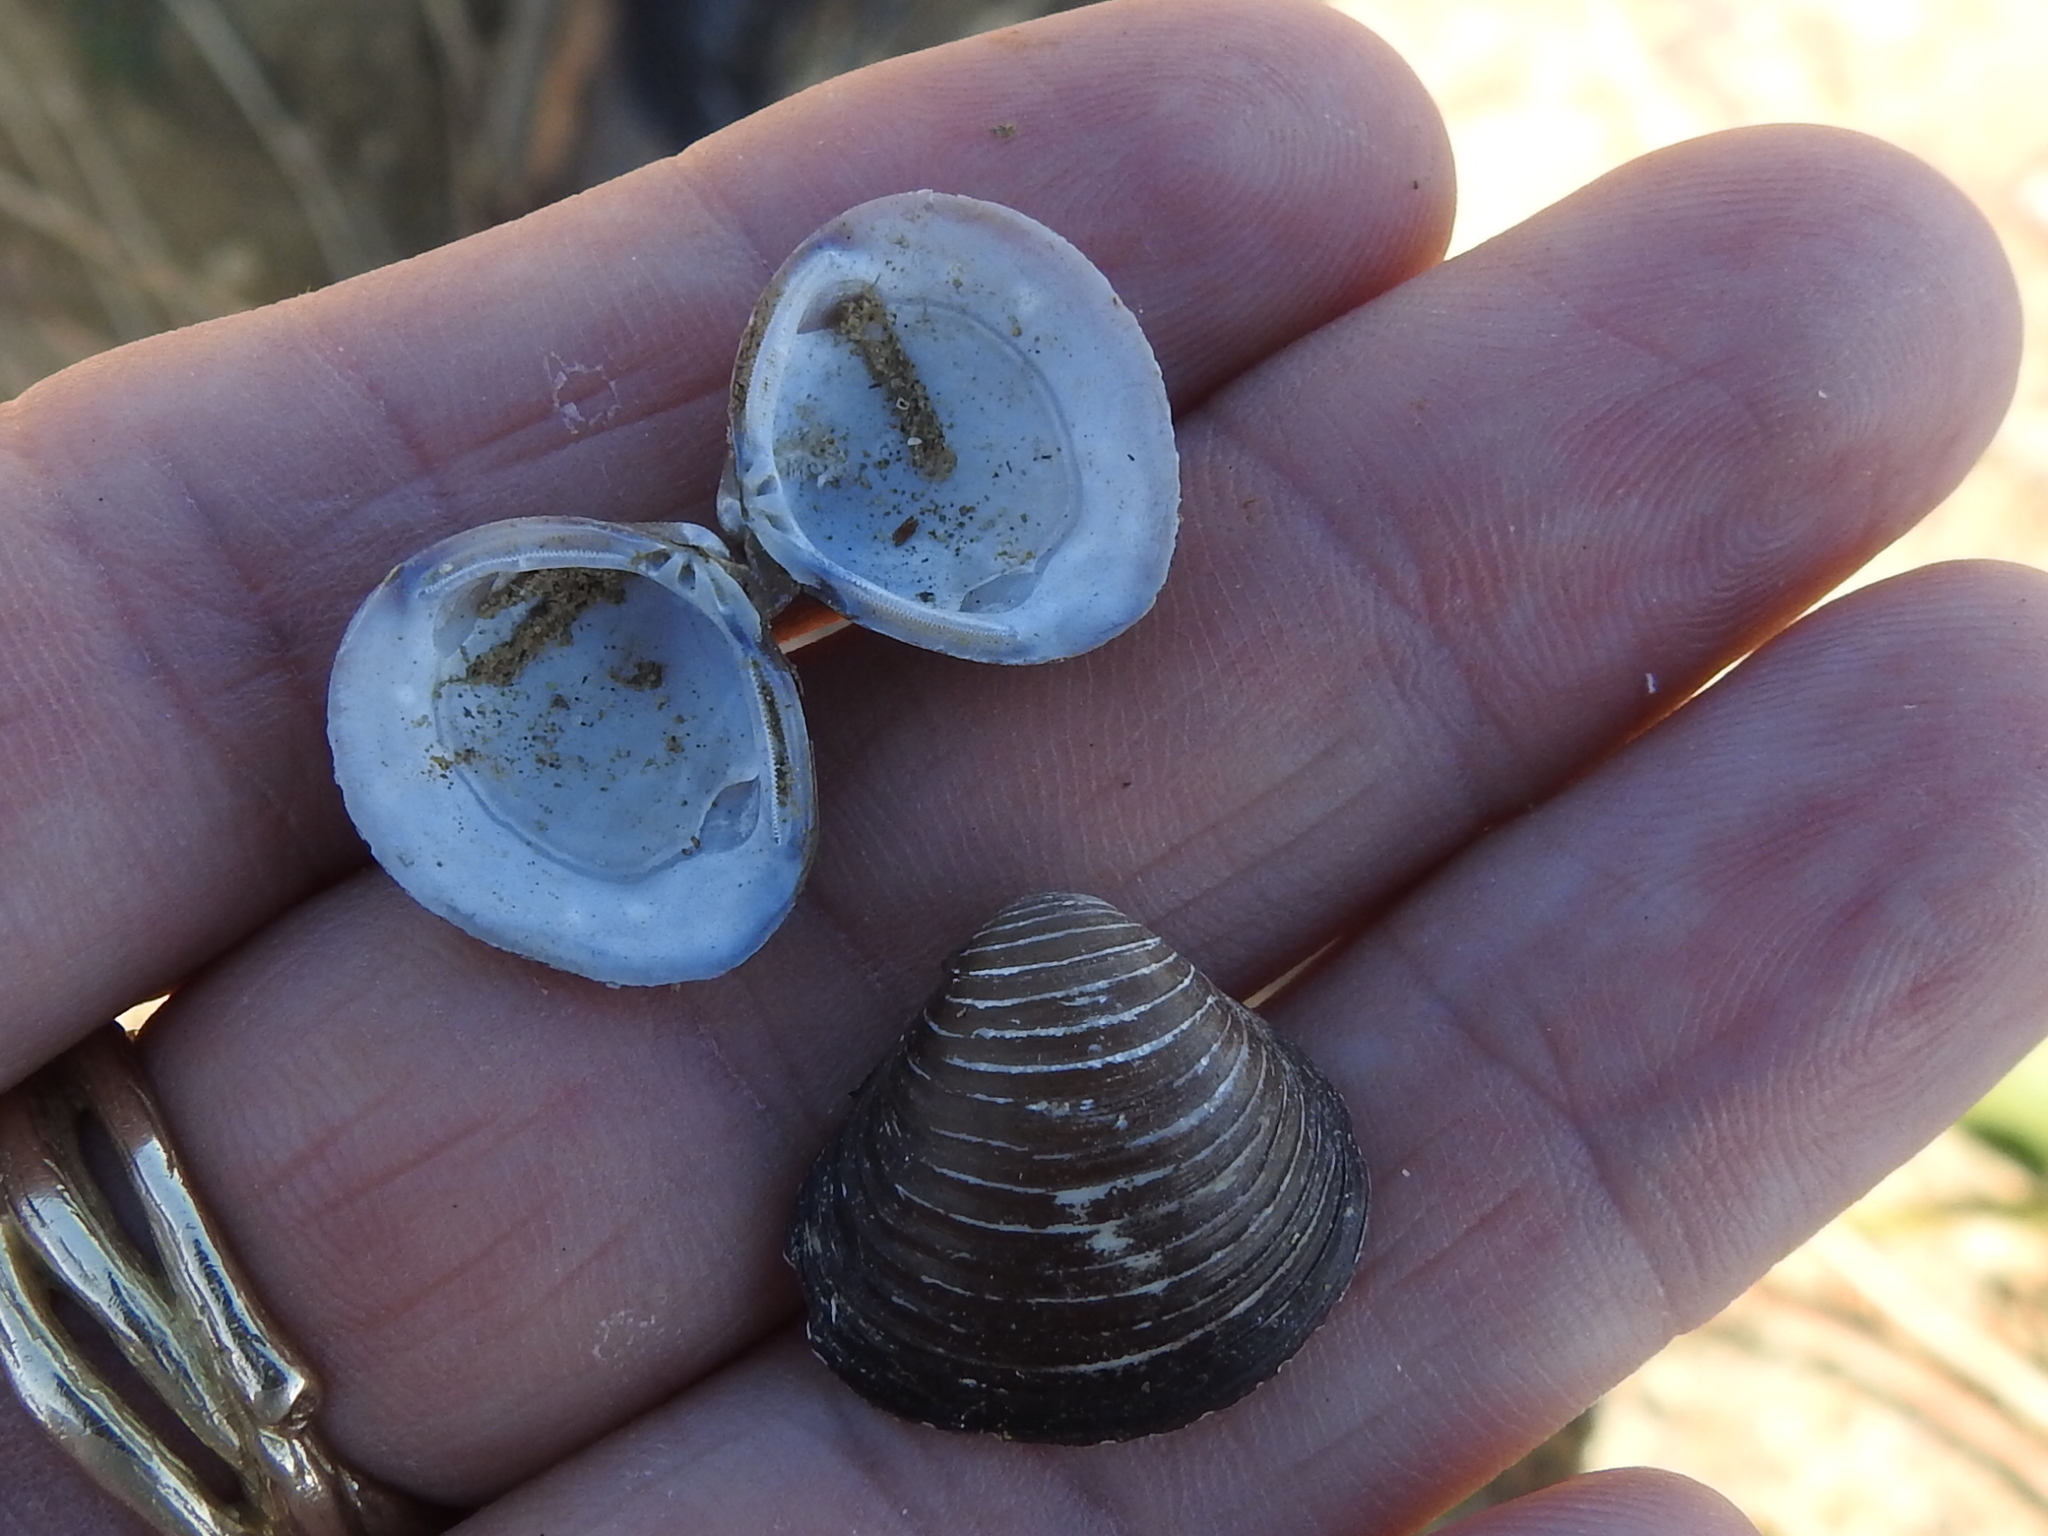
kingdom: Animalia
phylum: Mollusca
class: Bivalvia
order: Venerida
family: Cyrenidae
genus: Corbicula
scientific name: Corbicula fluminea
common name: Asian clam
